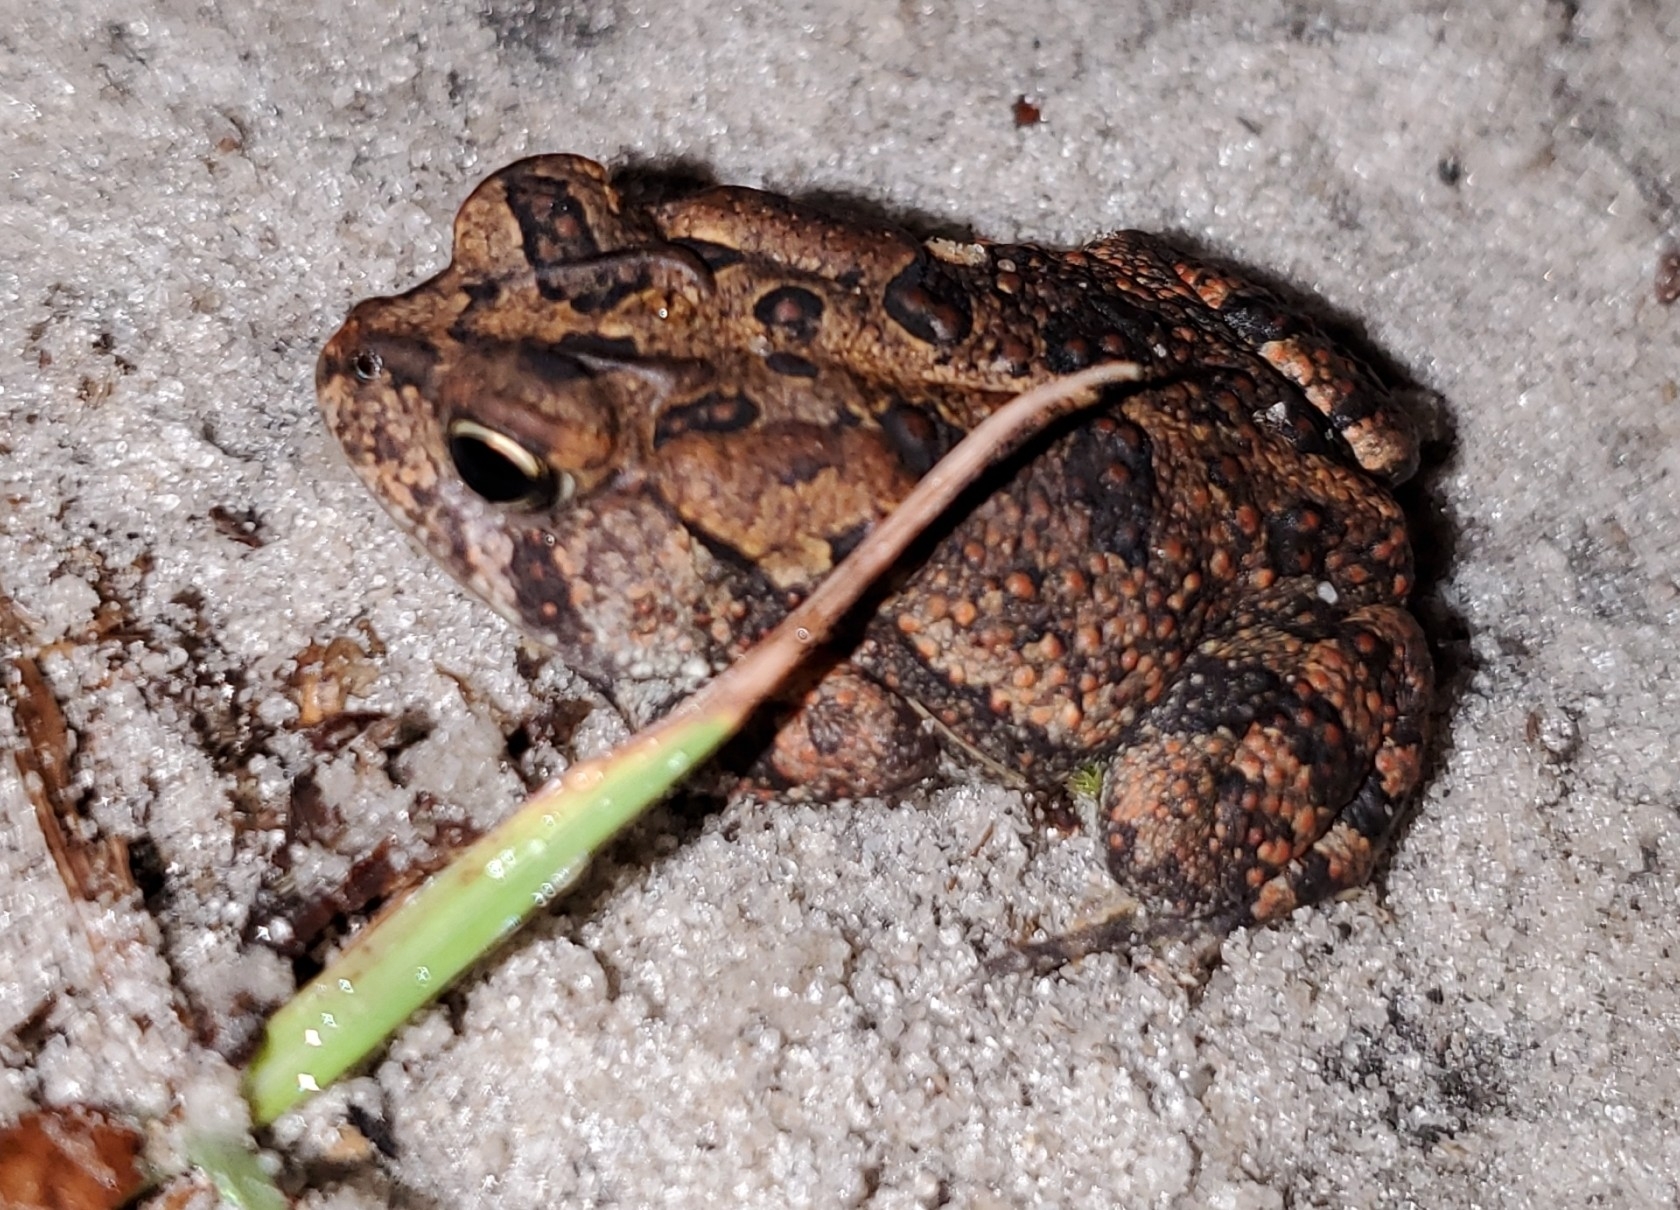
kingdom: Animalia
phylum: Chordata
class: Amphibia
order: Anura
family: Bufonidae
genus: Anaxyrus
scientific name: Anaxyrus terrestris
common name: Southern toad
